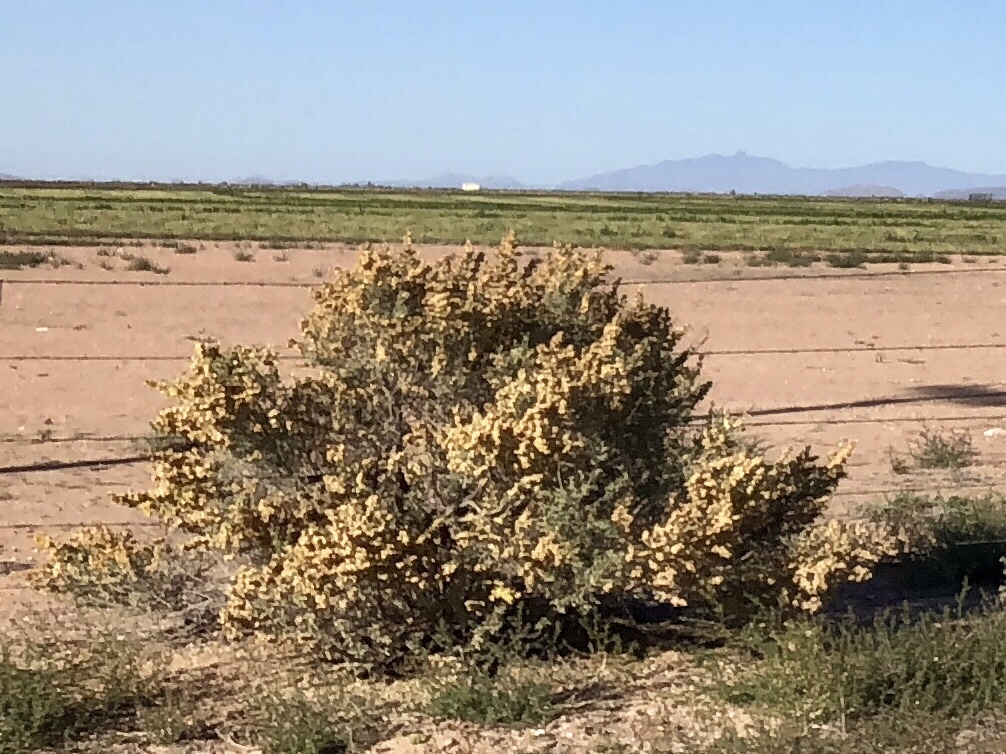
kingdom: Plantae
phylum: Tracheophyta
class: Magnoliopsida
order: Caryophyllales
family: Amaranthaceae
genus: Atriplex
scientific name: Atriplex canescens
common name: Four-wing saltbush
